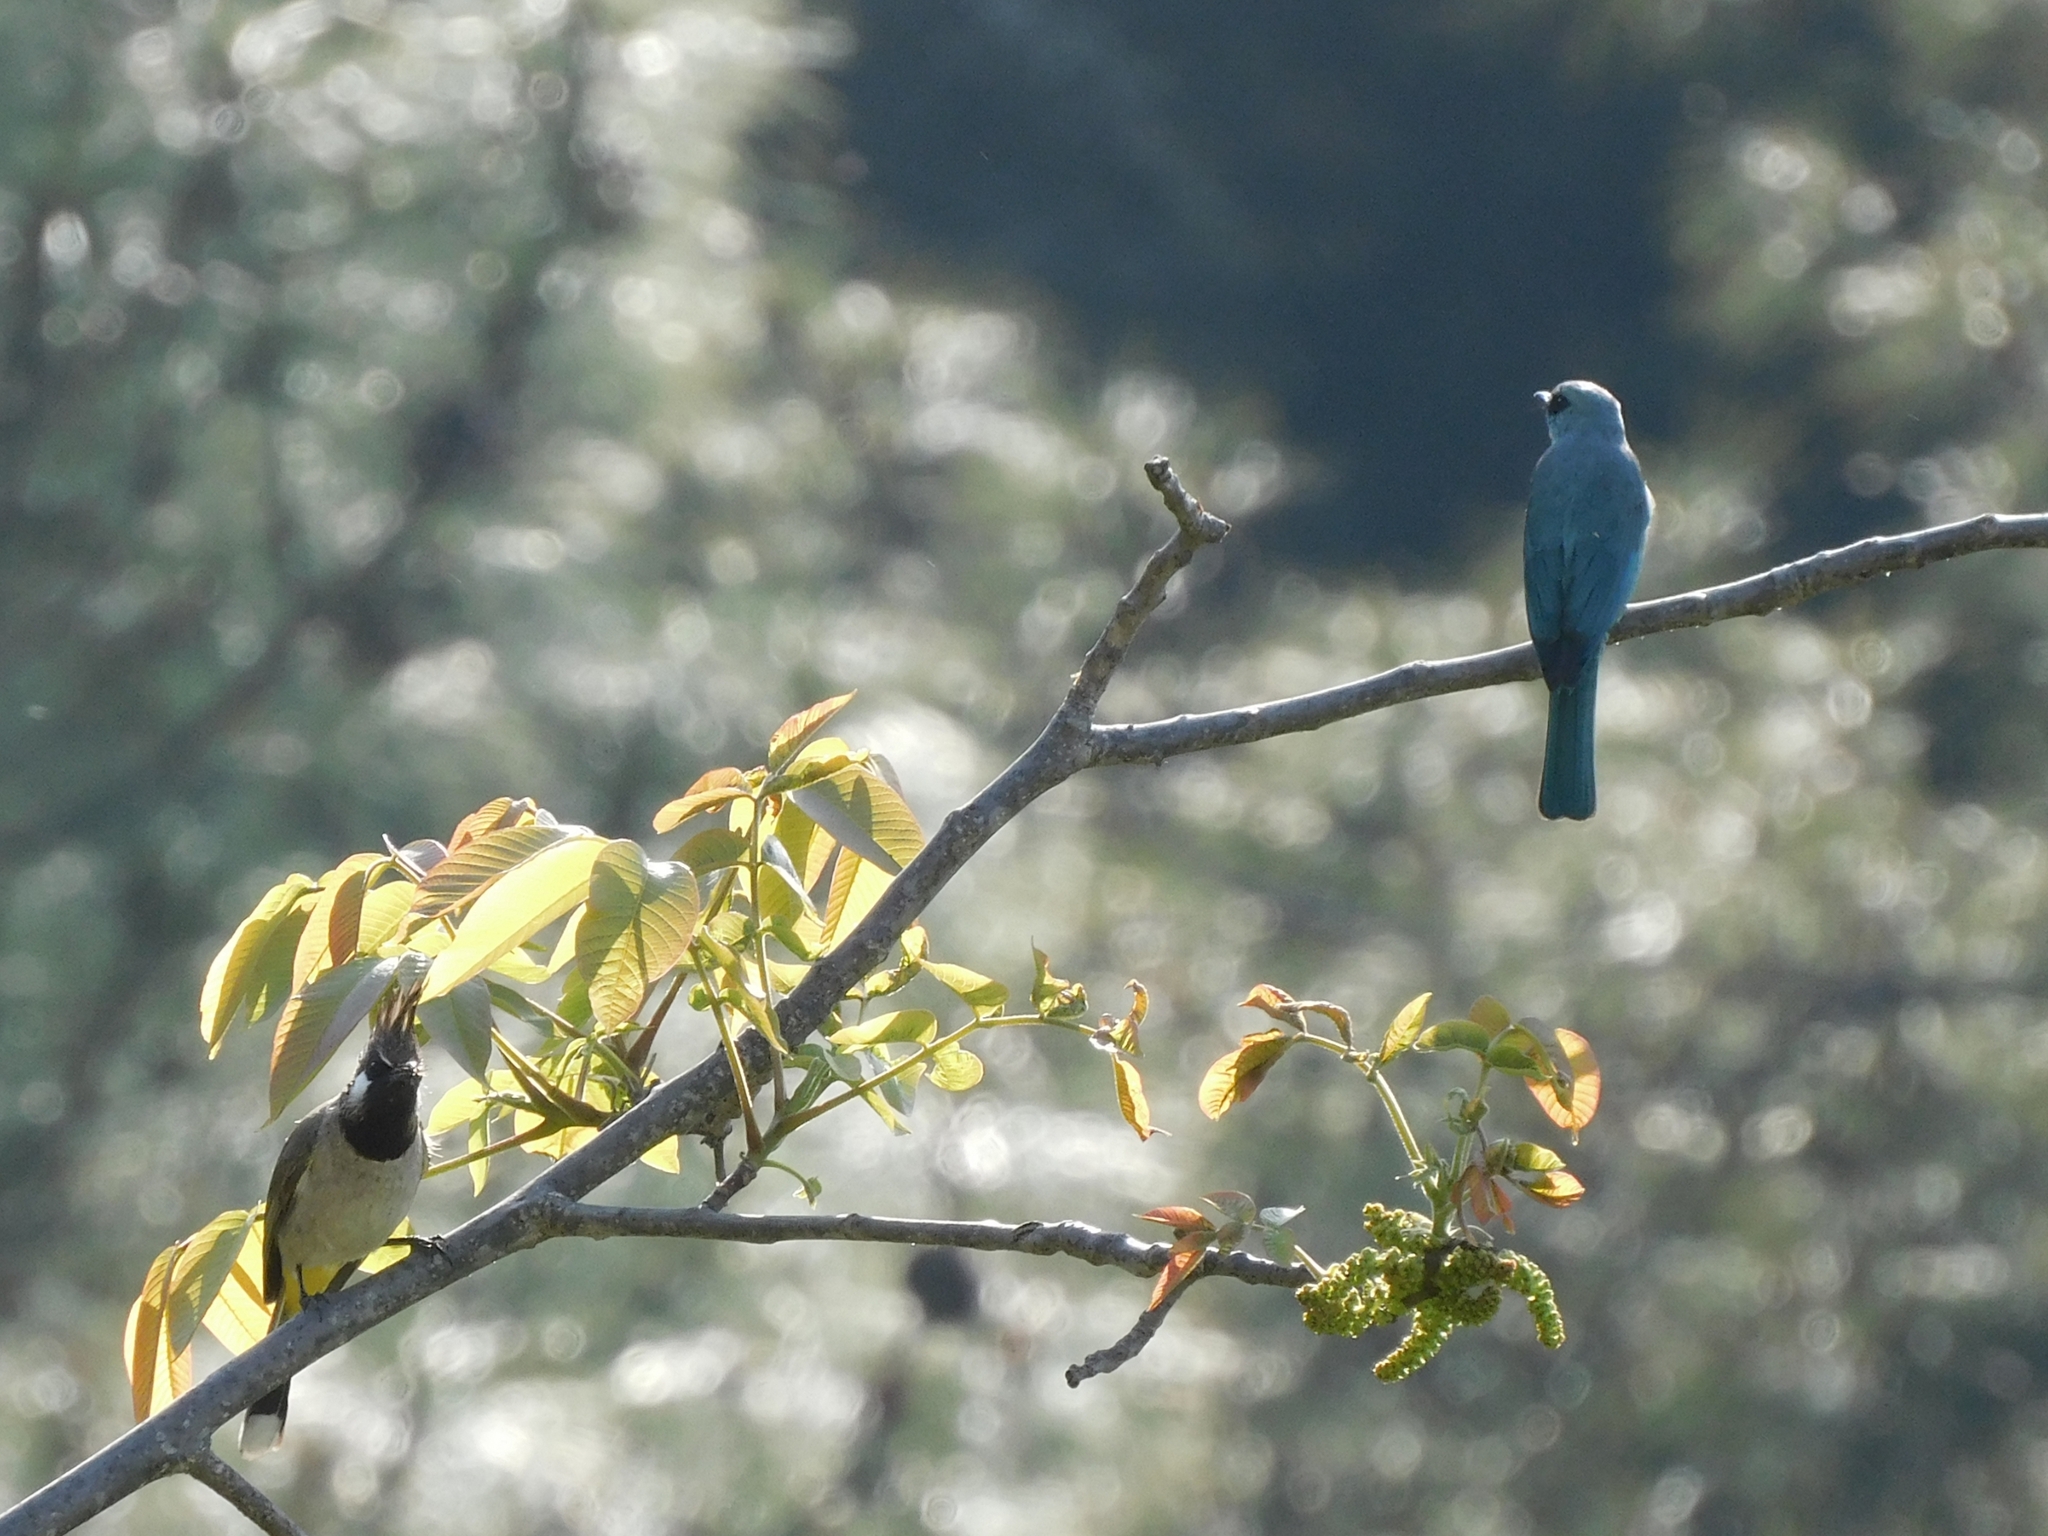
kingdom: Animalia
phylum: Chordata
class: Aves
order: Passeriformes
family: Muscicapidae
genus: Eumyias
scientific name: Eumyias thalassinus
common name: Verditer flycatcher
